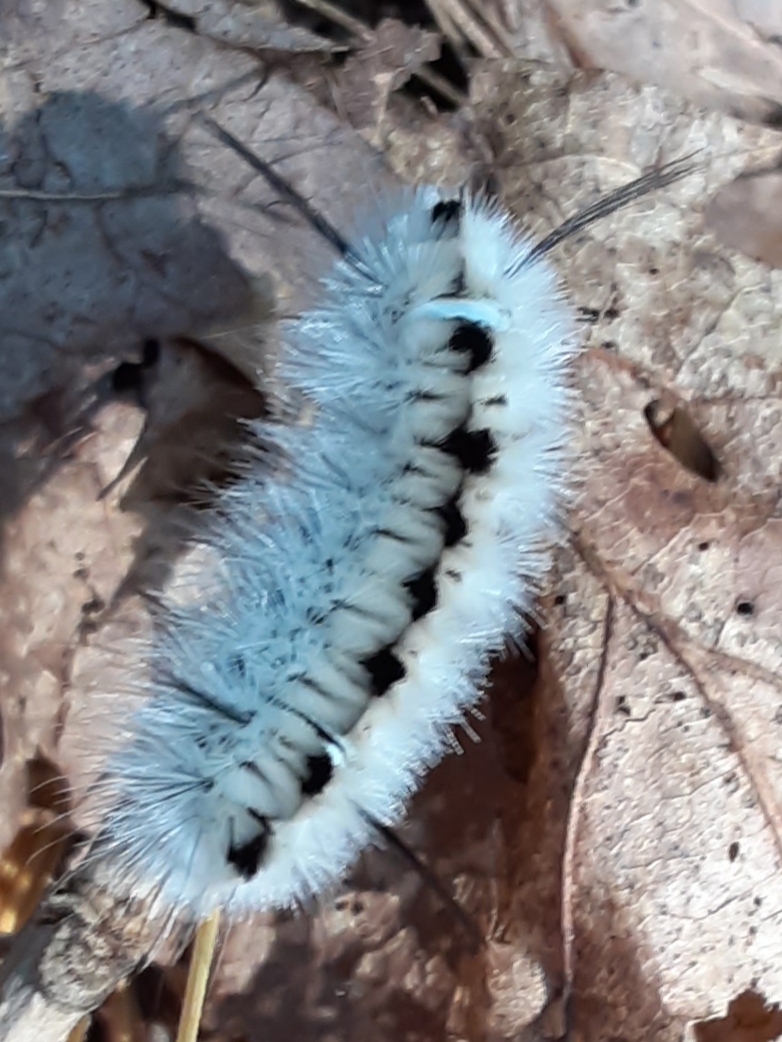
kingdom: Animalia
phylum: Arthropoda
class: Insecta
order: Lepidoptera
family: Erebidae
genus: Lophocampa
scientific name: Lophocampa caryae
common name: Hickory tussock moth
